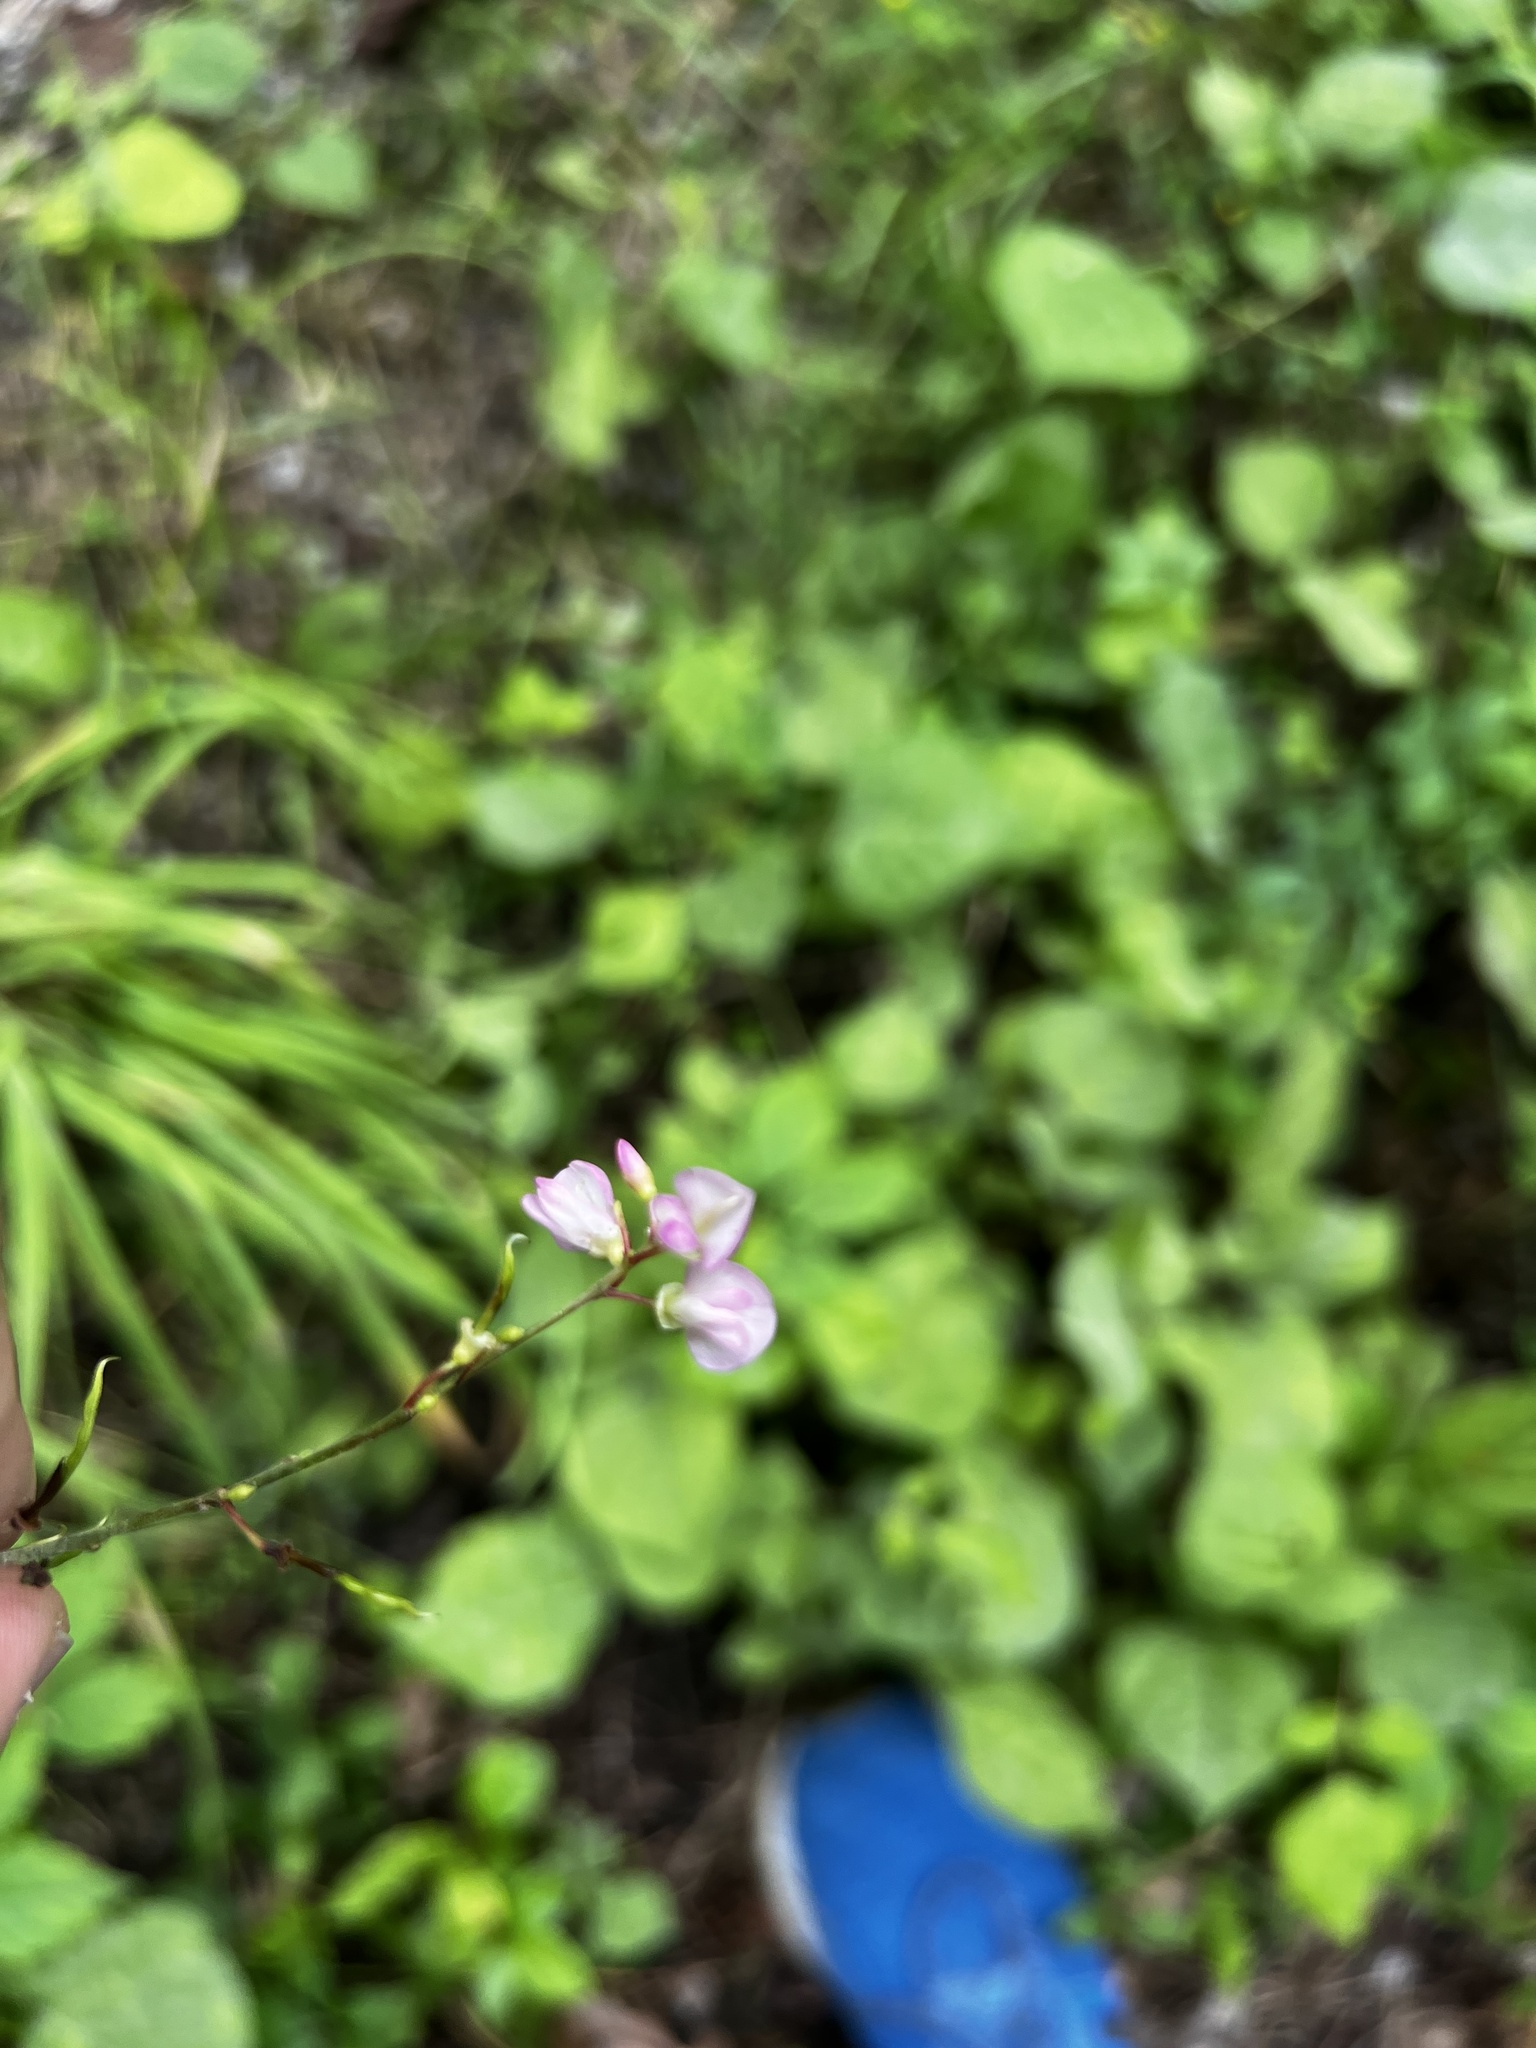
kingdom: Plantae
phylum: Tracheophyta
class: Magnoliopsida
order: Fabales
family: Fabaceae
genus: Hylodesmum
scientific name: Hylodesmum glutinosum
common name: Clustered-leaved tick-trefoil
